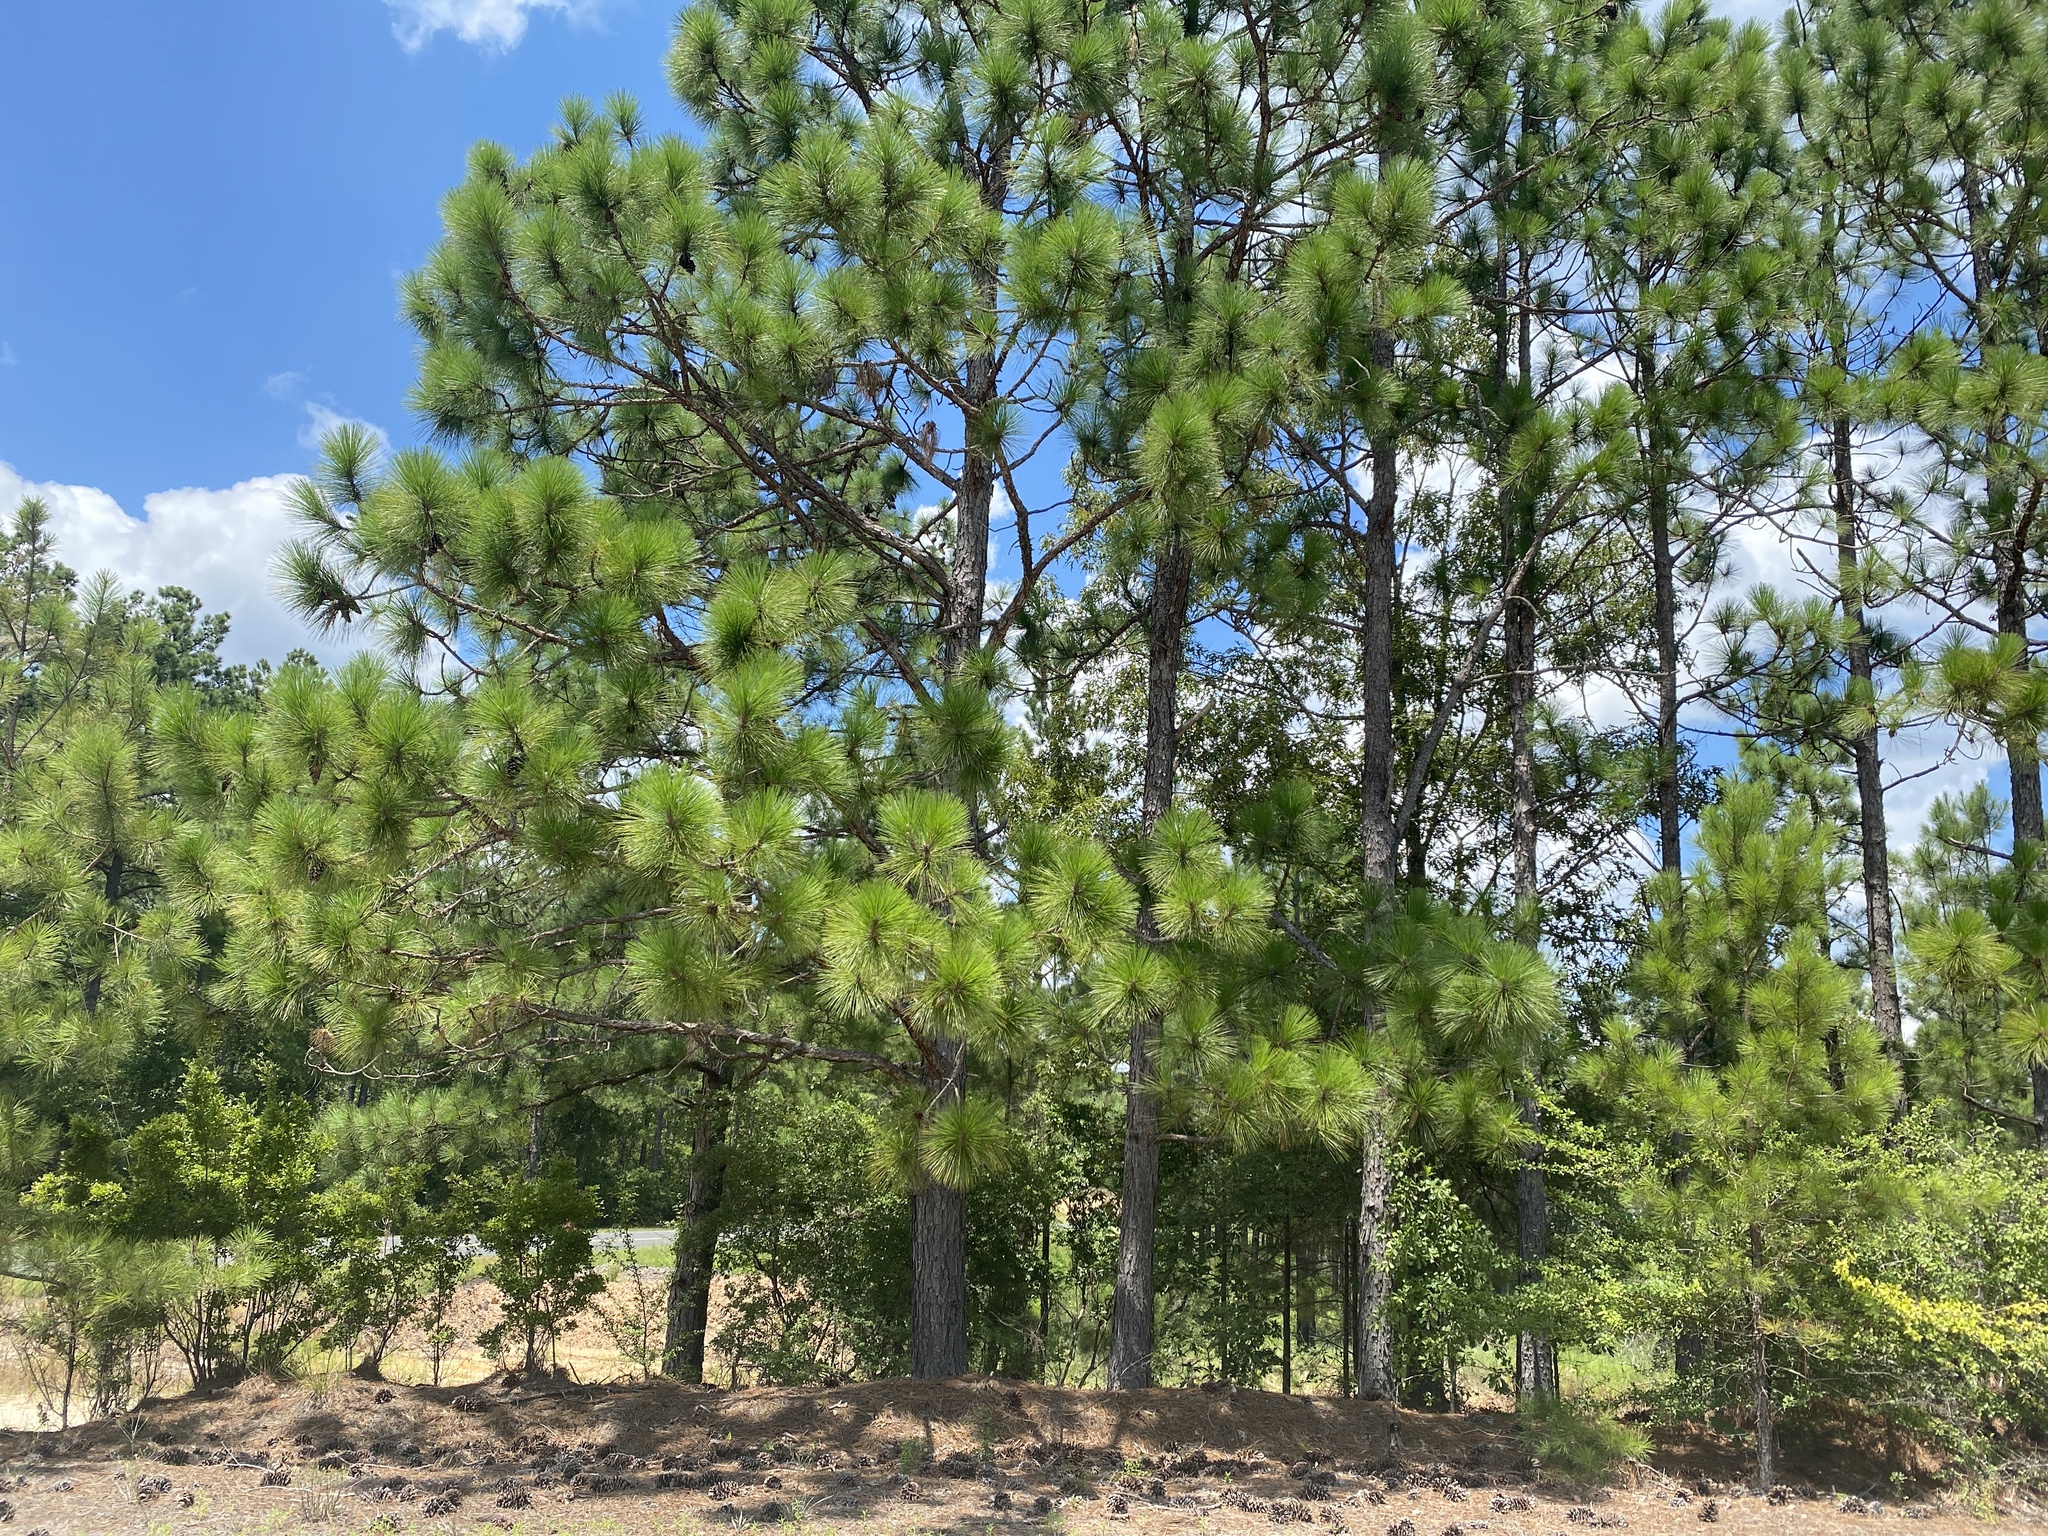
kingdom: Plantae
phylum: Tracheophyta
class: Pinopsida
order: Pinales
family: Pinaceae
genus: Pinus
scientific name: Pinus palustris
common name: Longleaf pine
